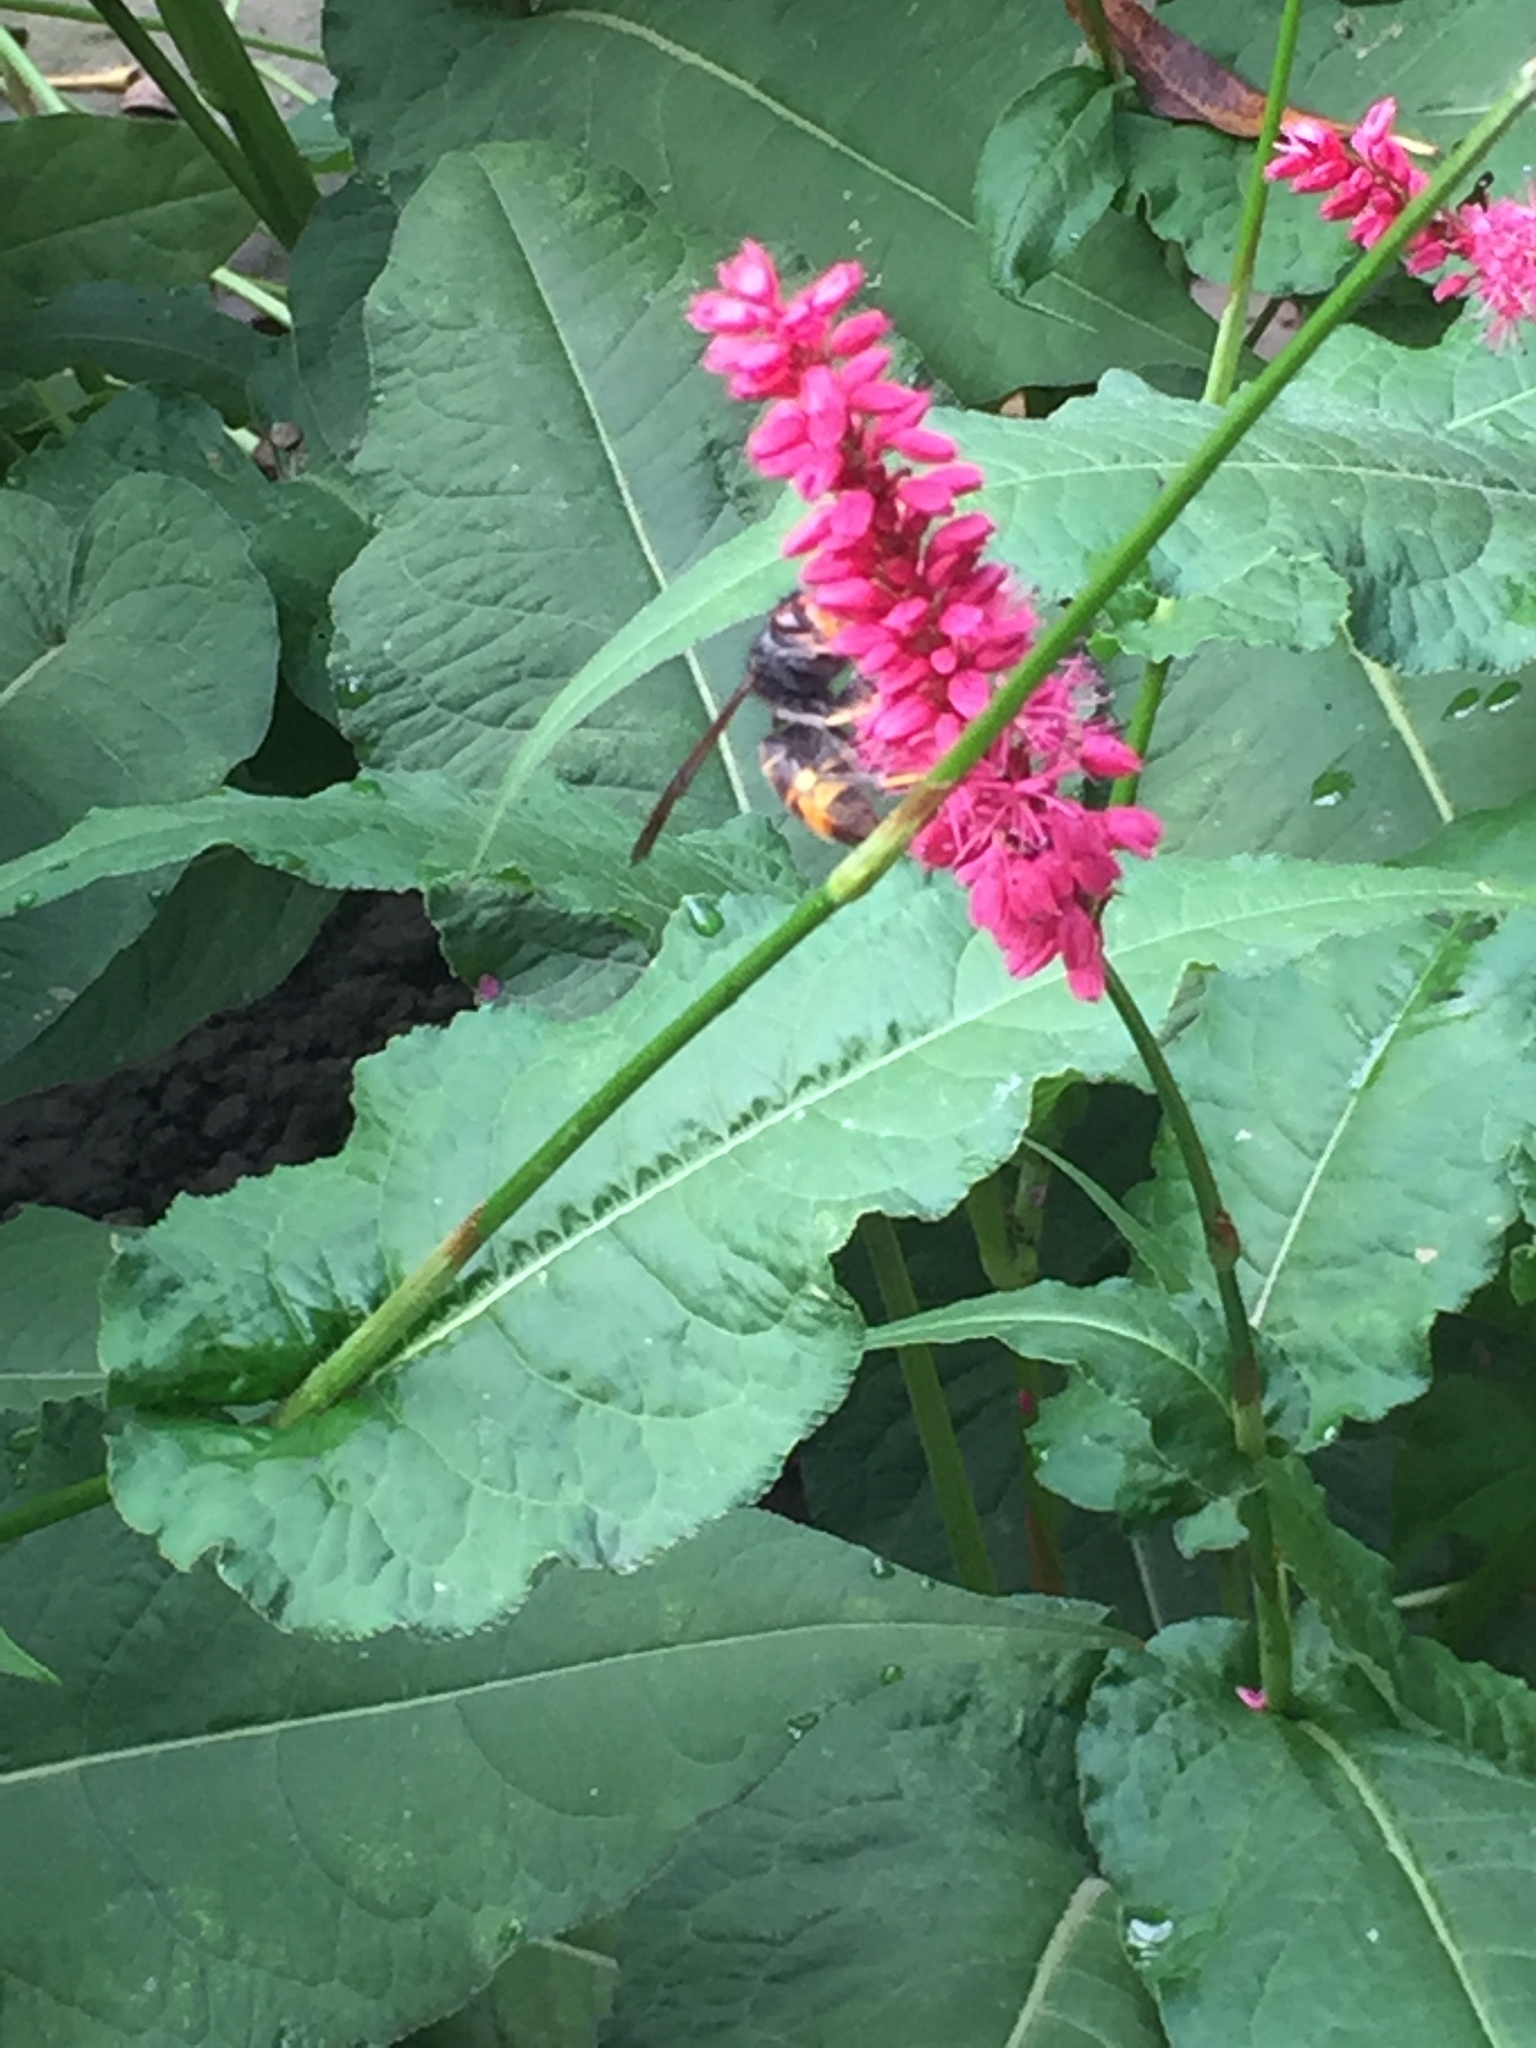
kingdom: Animalia
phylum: Arthropoda
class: Insecta
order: Hymenoptera
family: Vespidae
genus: Vespa
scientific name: Vespa velutina
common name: Asian hornet
